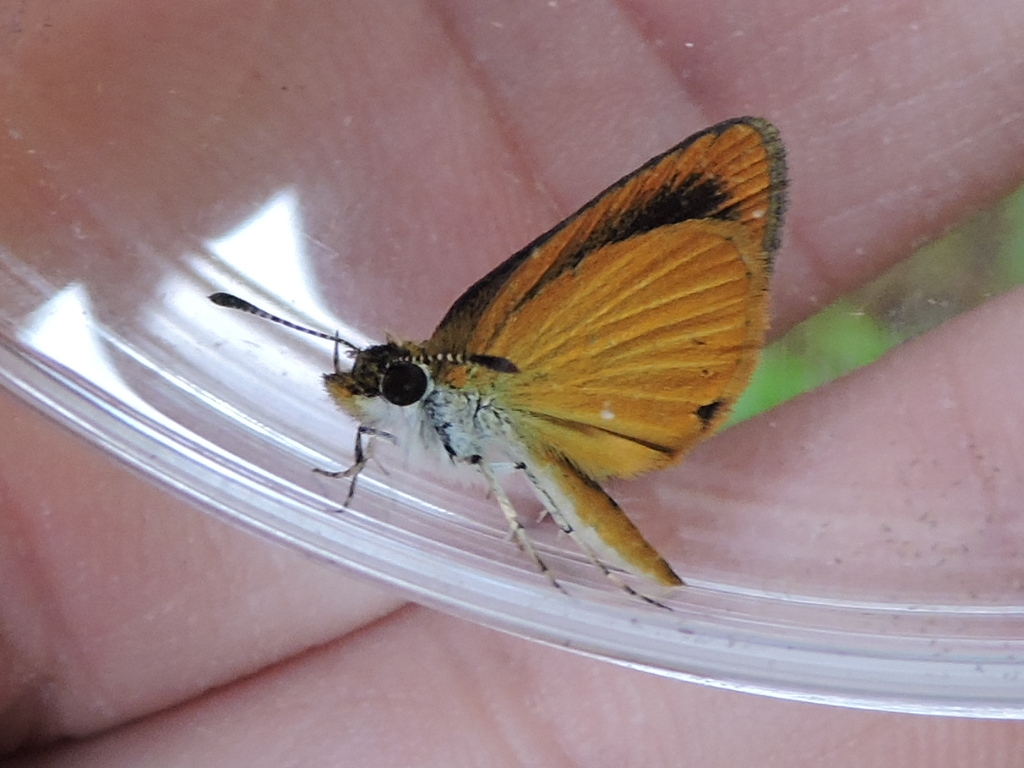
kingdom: Animalia
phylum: Arthropoda
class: Insecta
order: Lepidoptera
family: Hesperiidae
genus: Ancyloxypha
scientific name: Ancyloxypha numitor
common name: Least skipper
